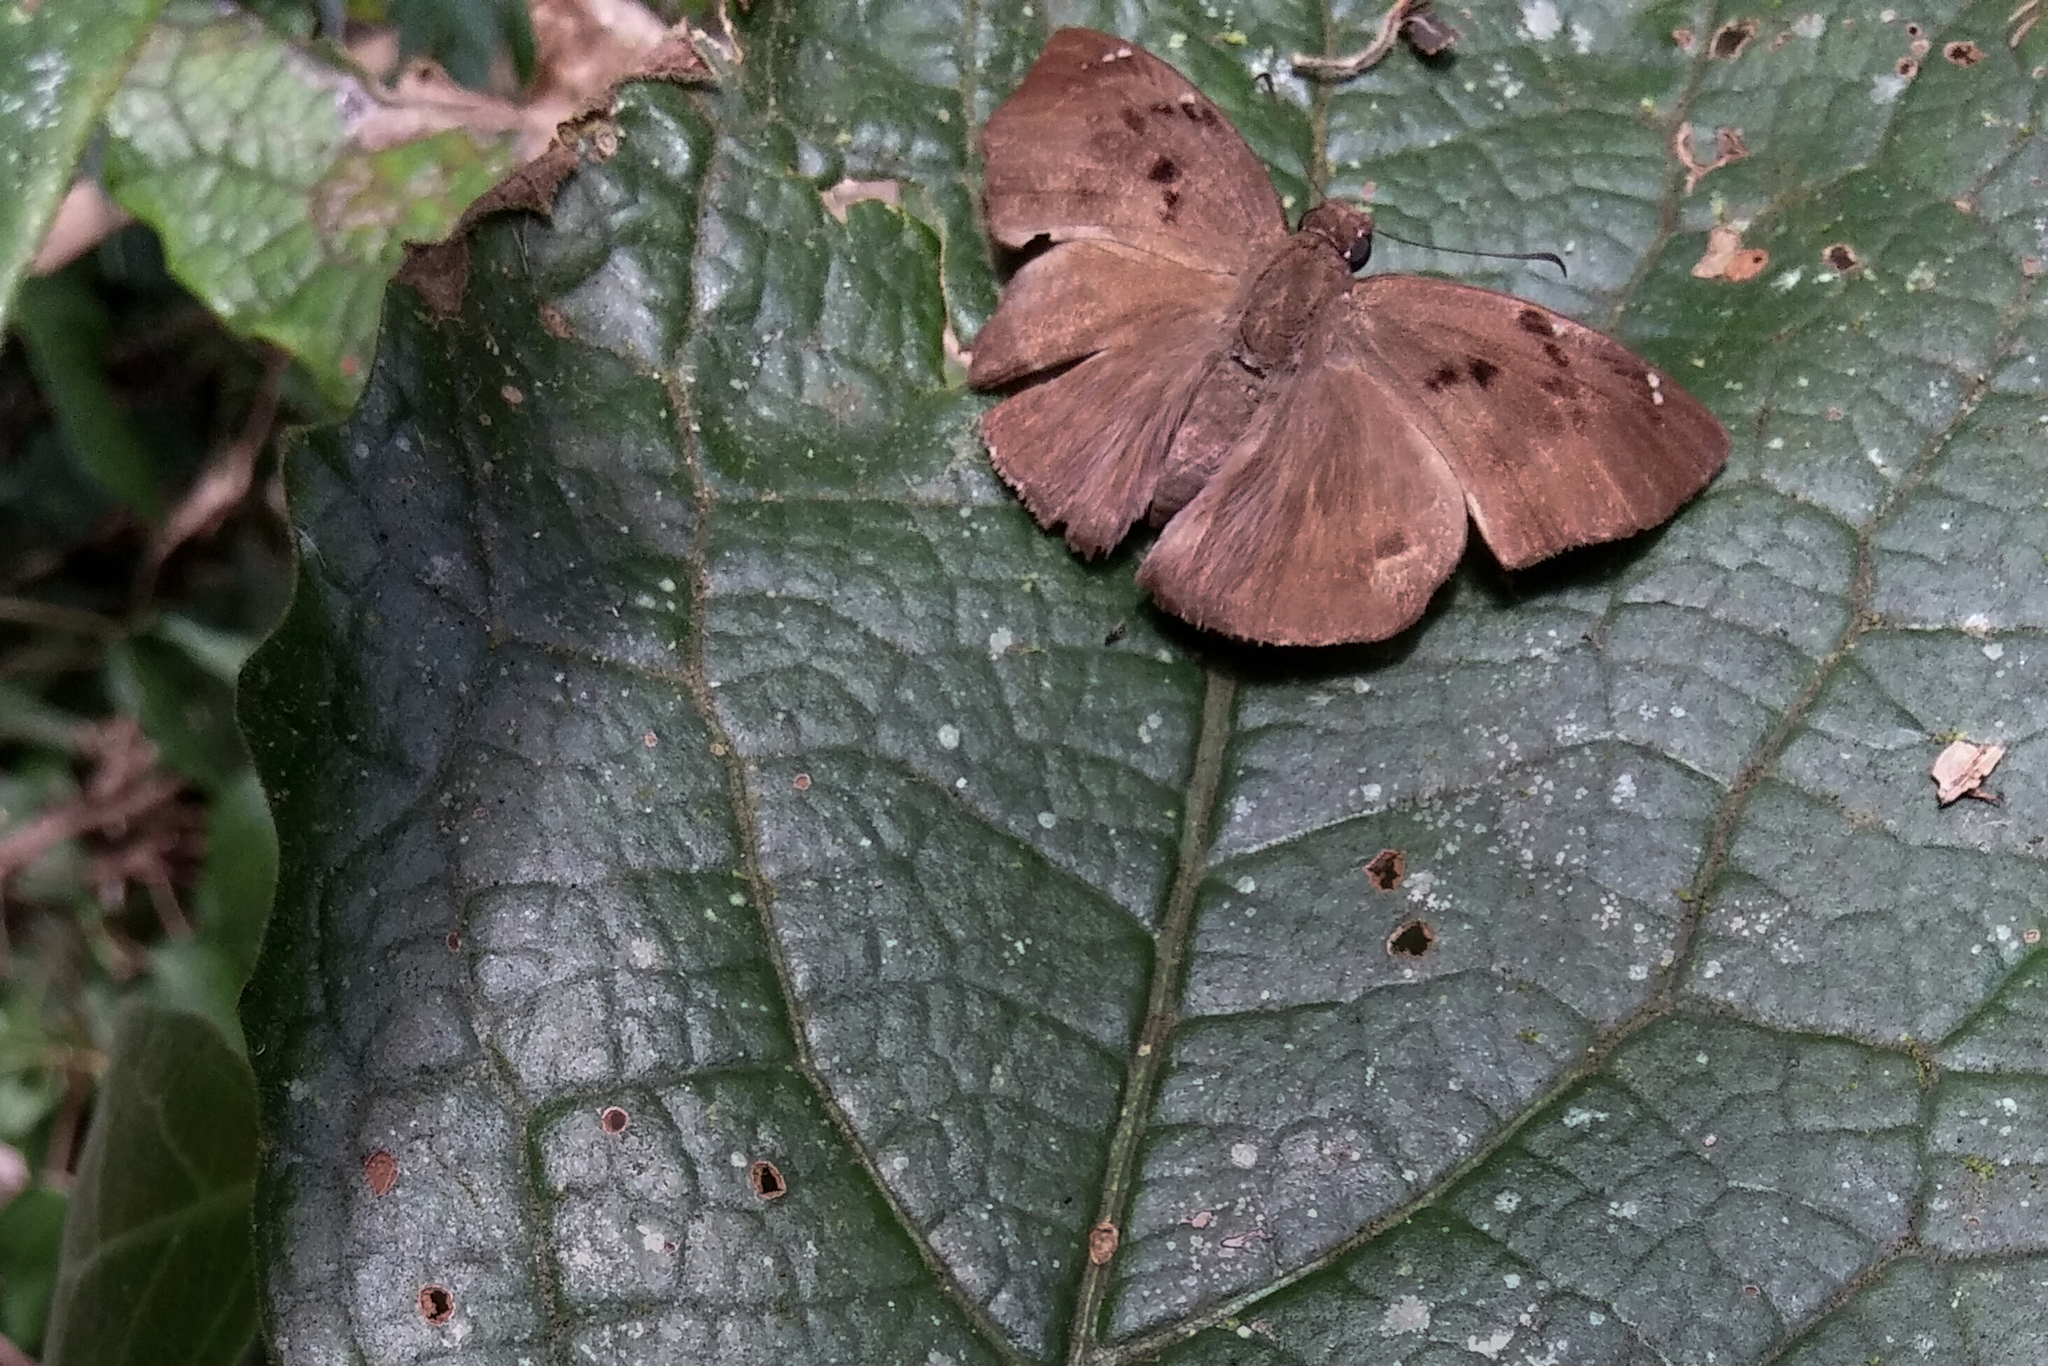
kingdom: Animalia
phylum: Arthropoda
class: Insecta
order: Lepidoptera
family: Hesperiidae
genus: Tagiades
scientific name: Tagiades insularis
